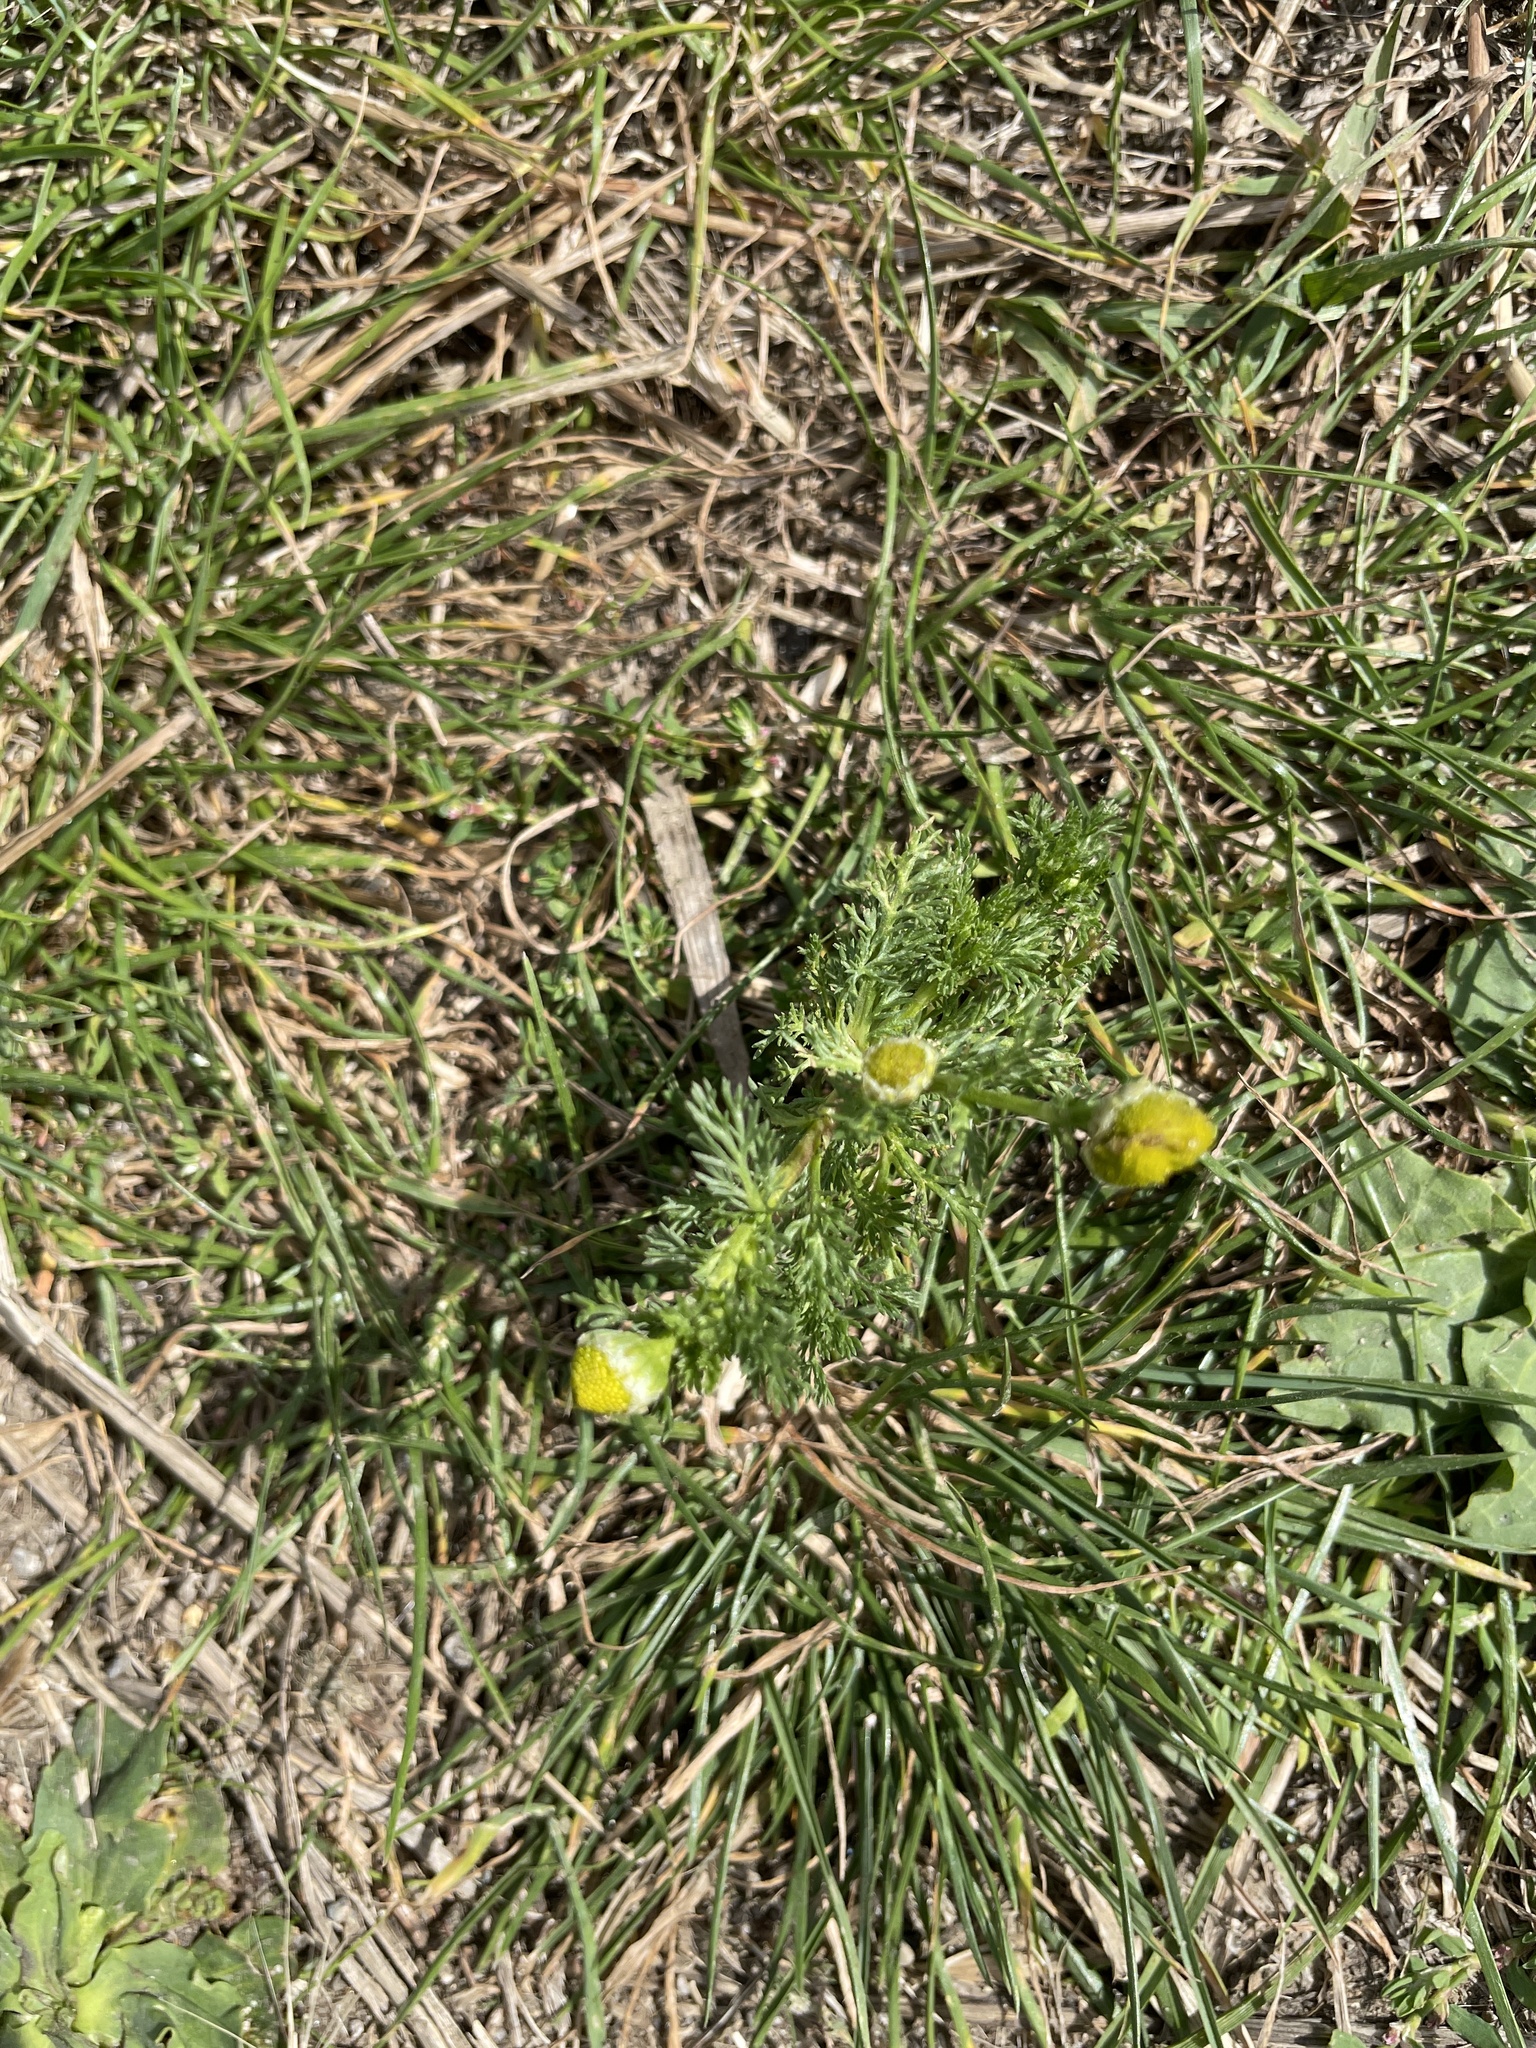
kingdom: Plantae
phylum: Tracheophyta
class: Magnoliopsida
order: Asterales
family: Asteraceae
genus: Matricaria
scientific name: Matricaria discoidea
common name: Disc mayweed
